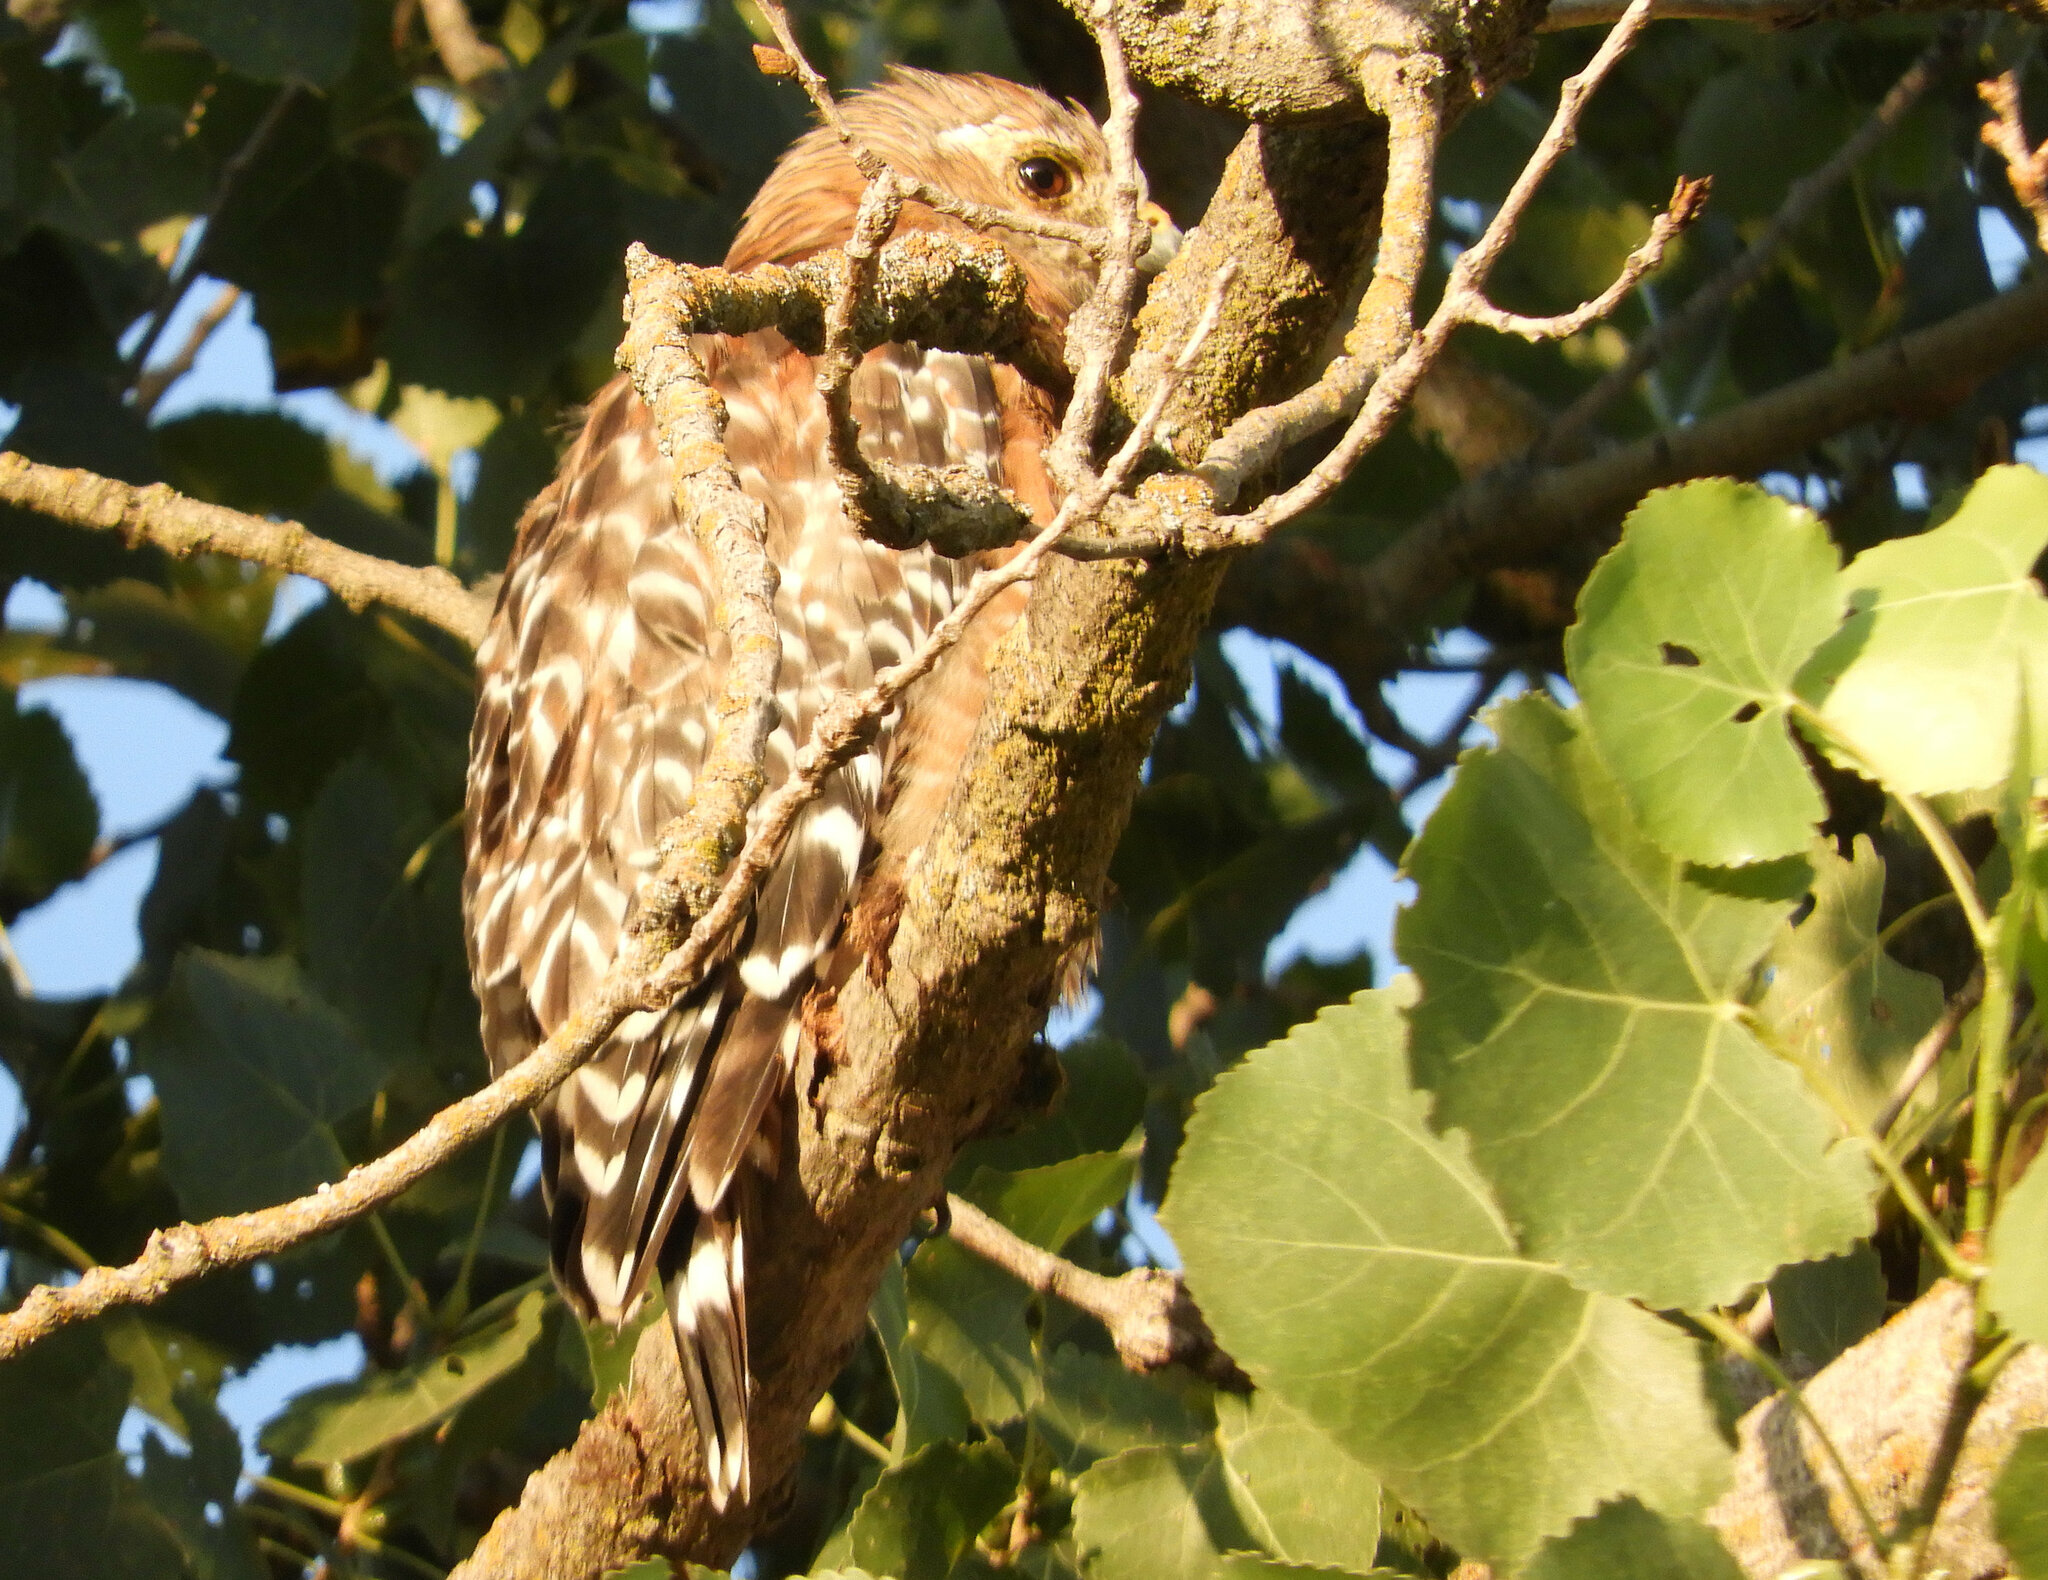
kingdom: Animalia
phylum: Chordata
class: Aves
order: Accipitriformes
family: Accipitridae
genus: Buteo
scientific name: Buteo lineatus
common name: Red-shouldered hawk
